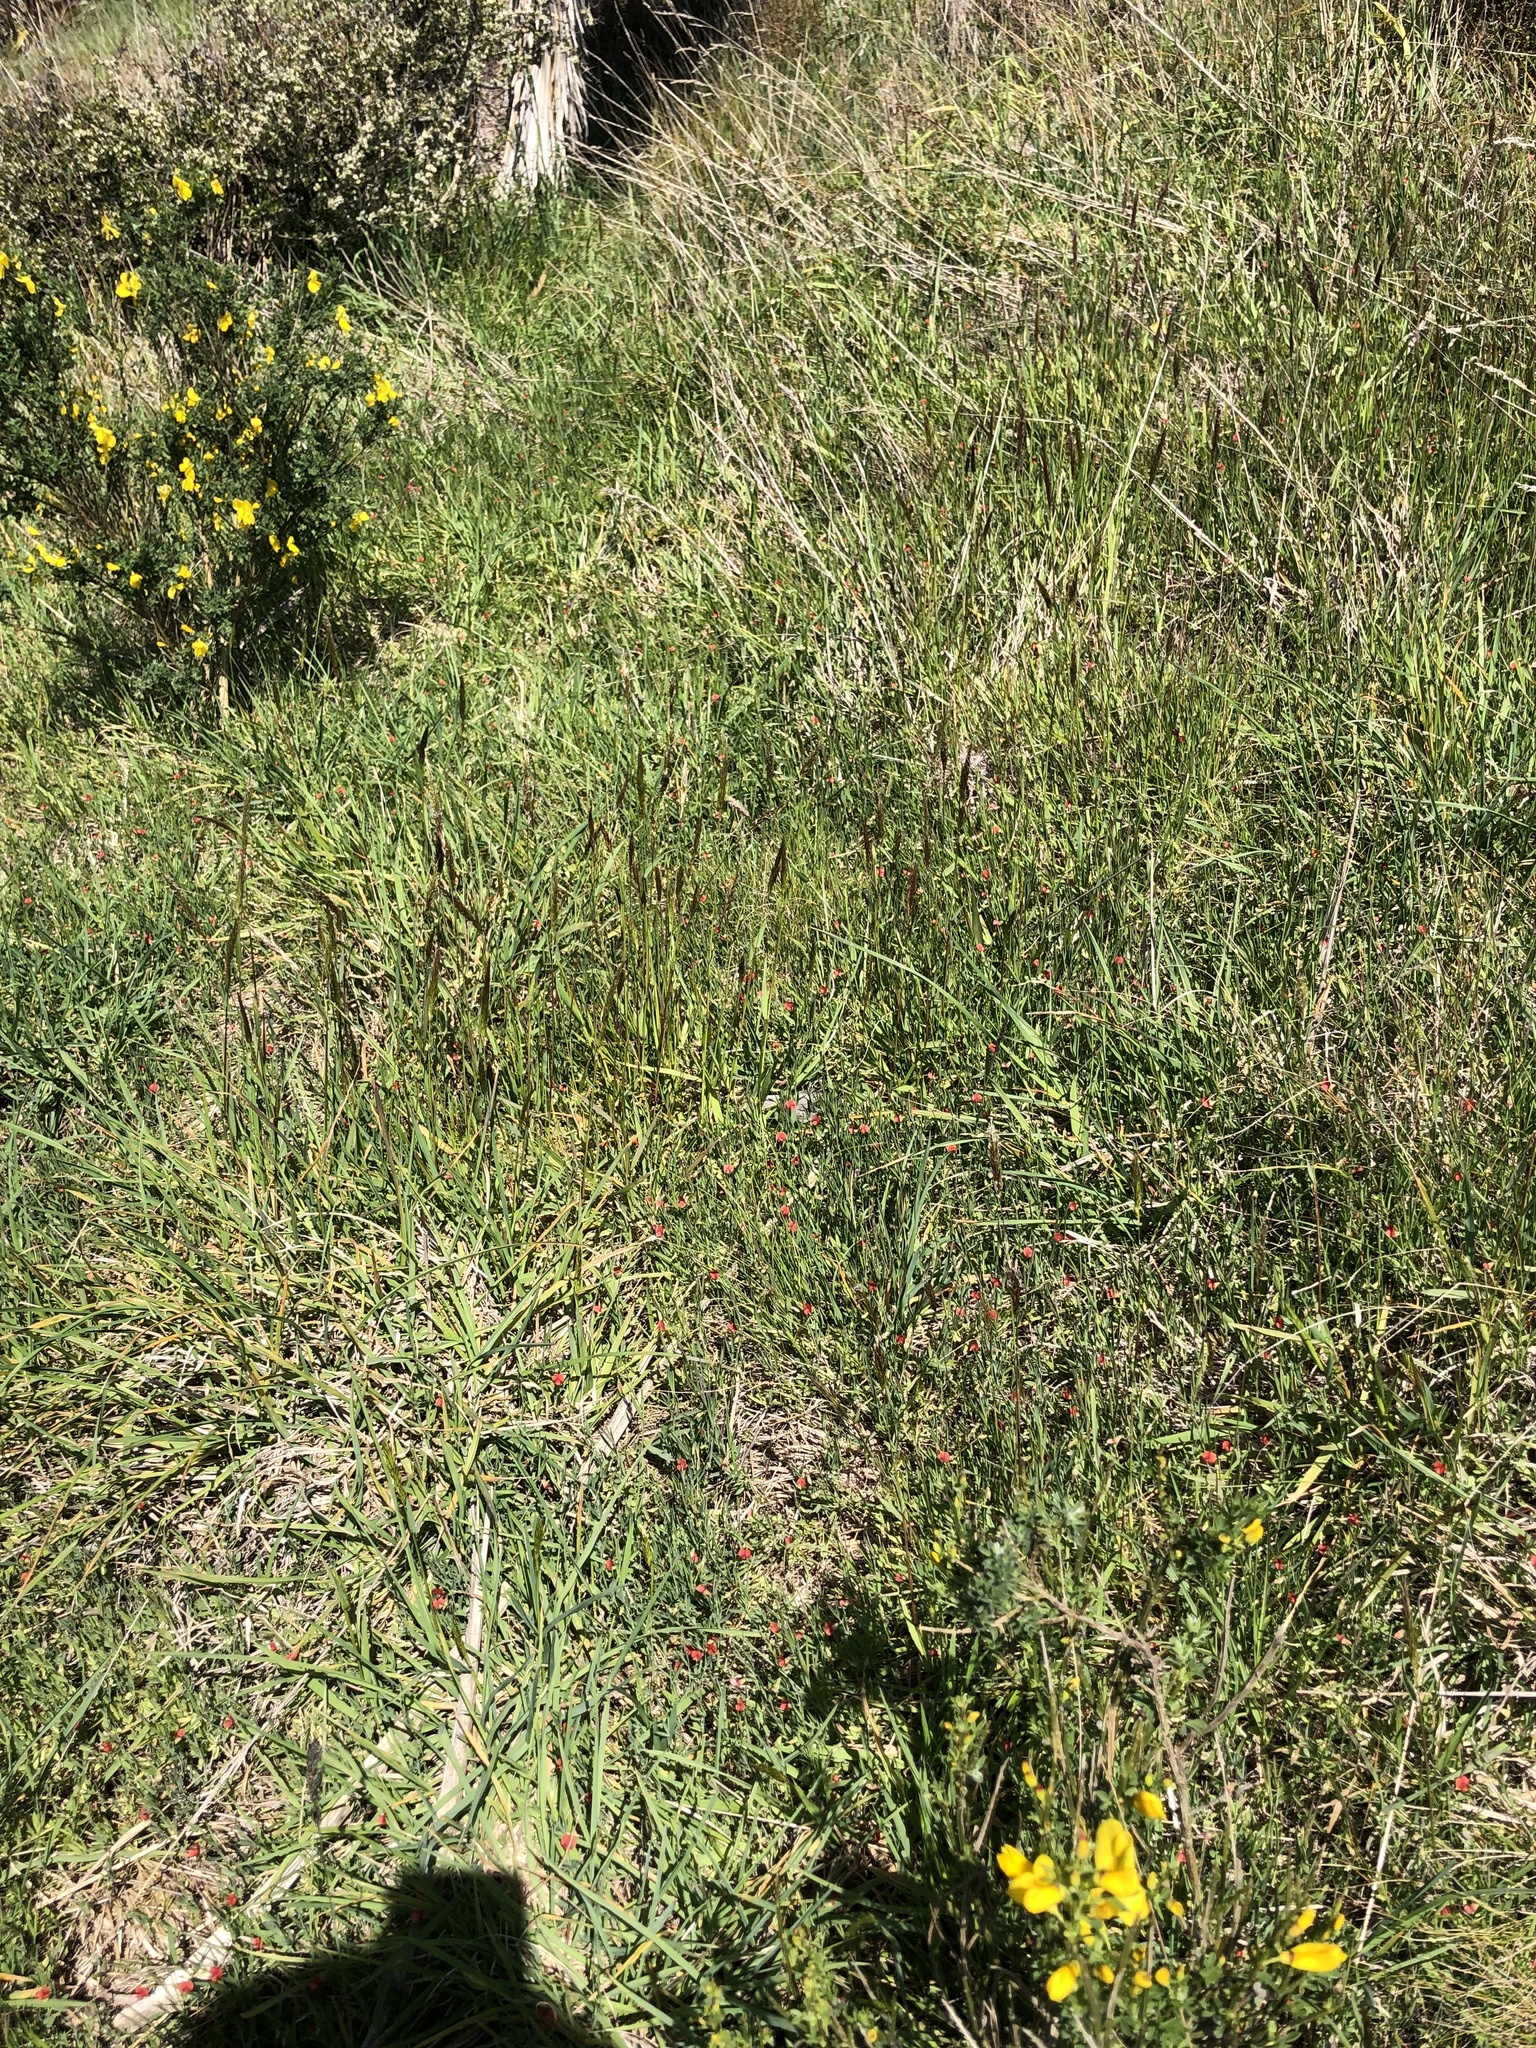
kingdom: Plantae
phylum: Tracheophyta
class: Magnoliopsida
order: Fabales
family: Fabaceae
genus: Lathyrus
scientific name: Lathyrus sphaericus
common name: Grass pea
